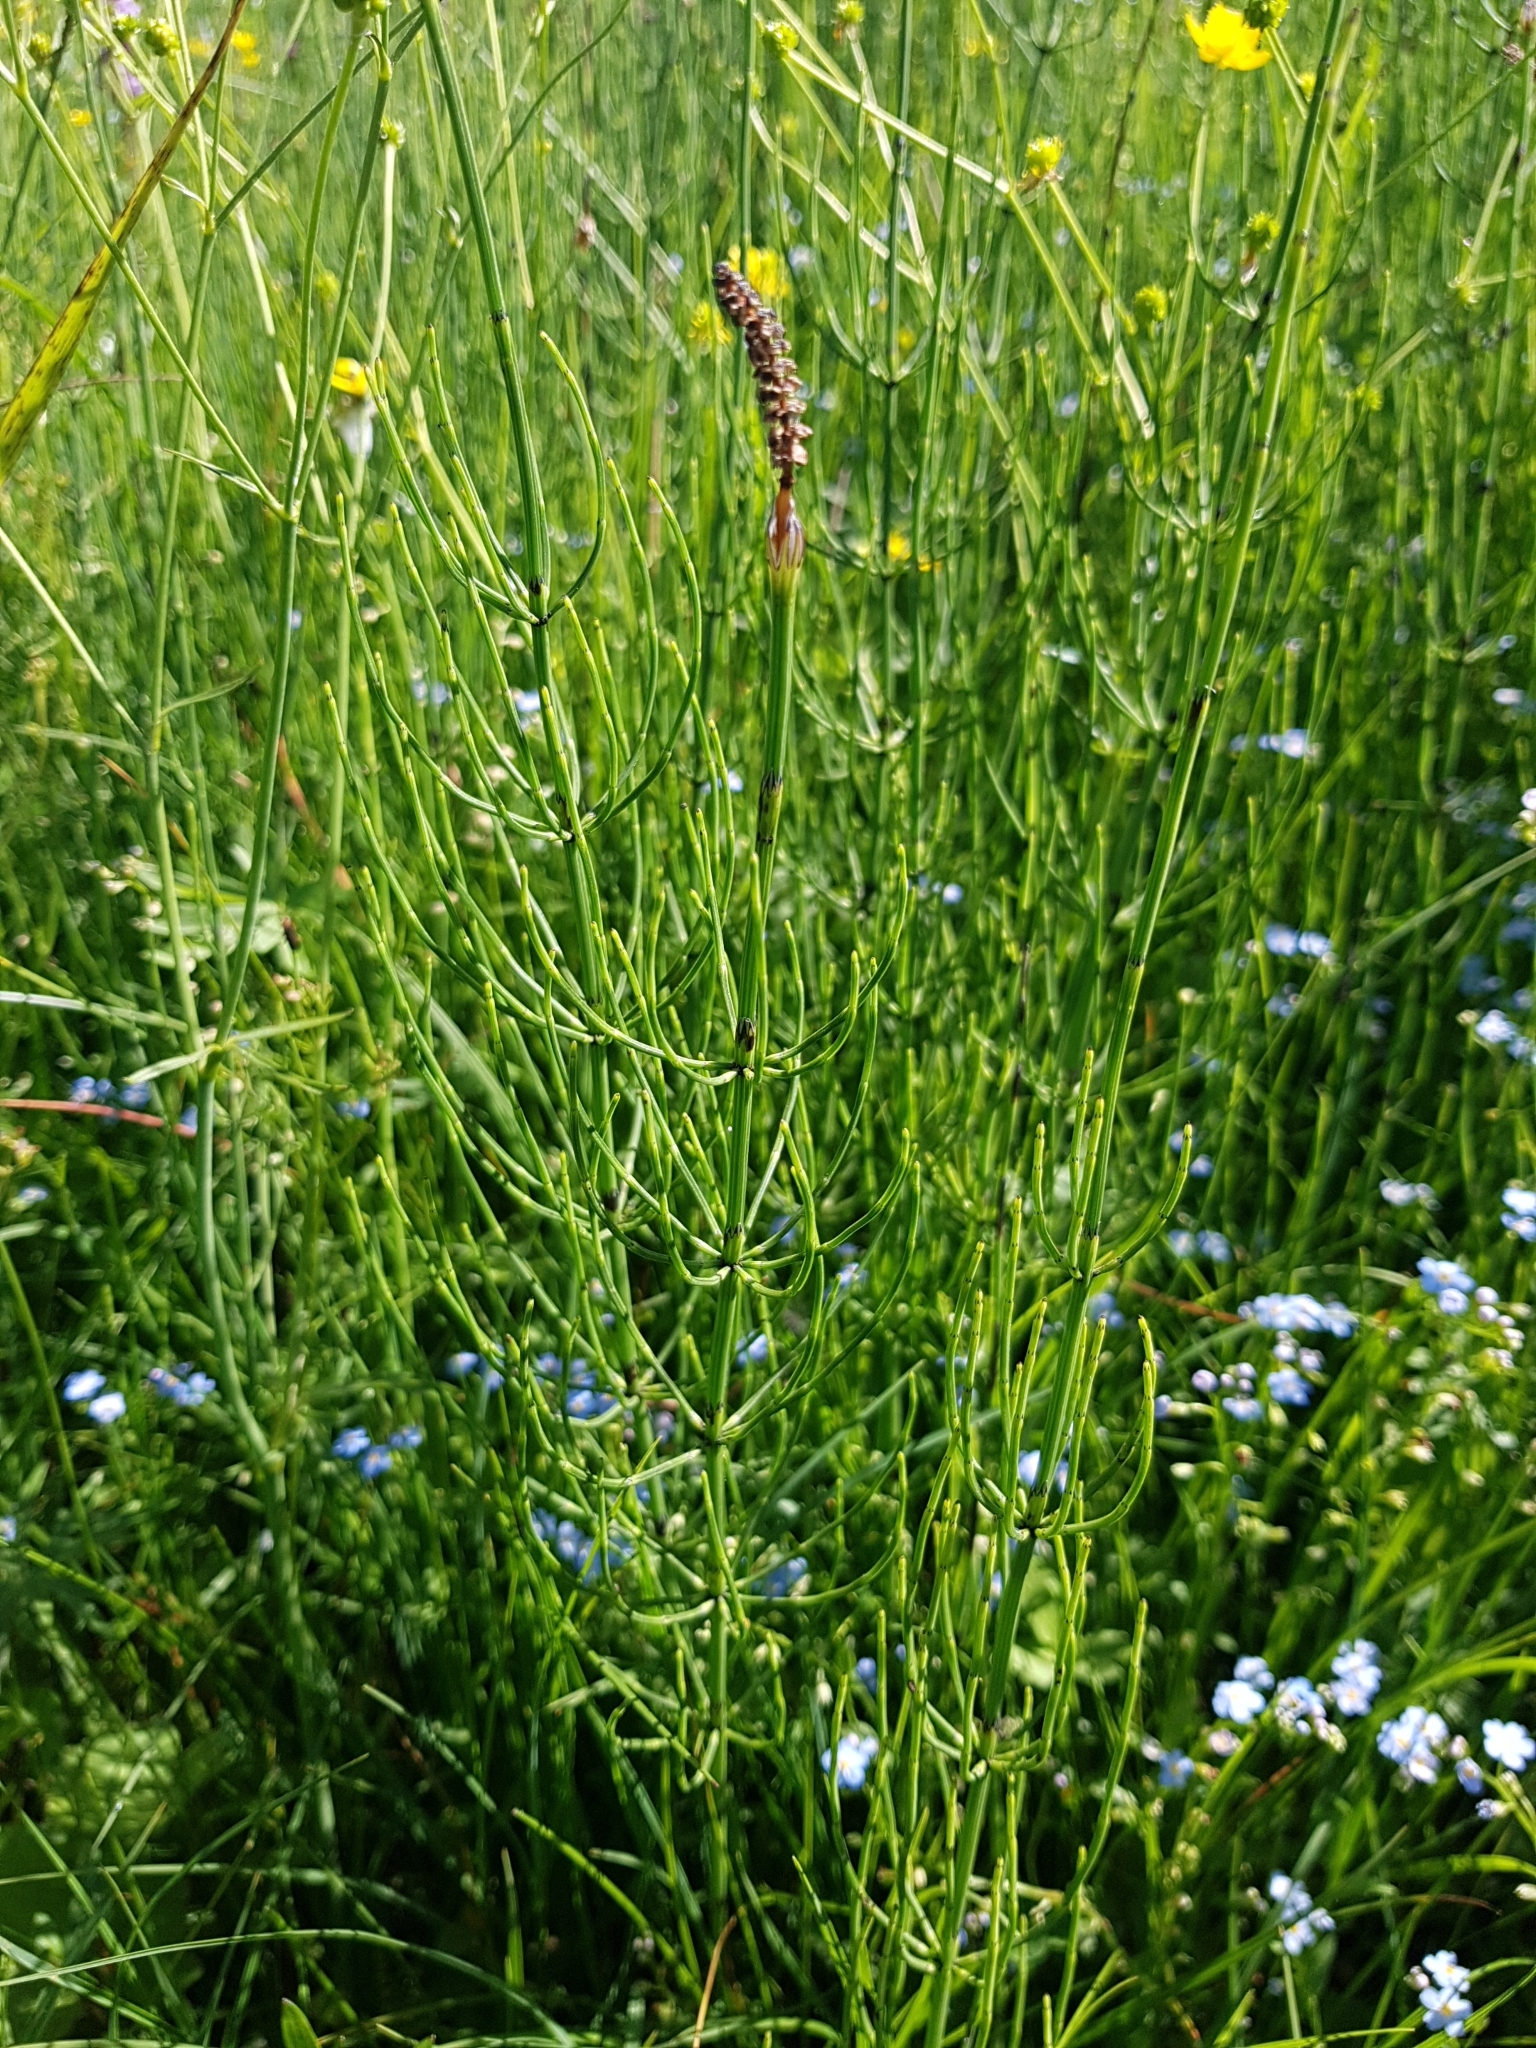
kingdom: Plantae
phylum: Tracheophyta
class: Polypodiopsida
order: Equisetales
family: Equisetaceae
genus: Equisetum
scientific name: Equisetum palustre
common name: Marsh horsetail
